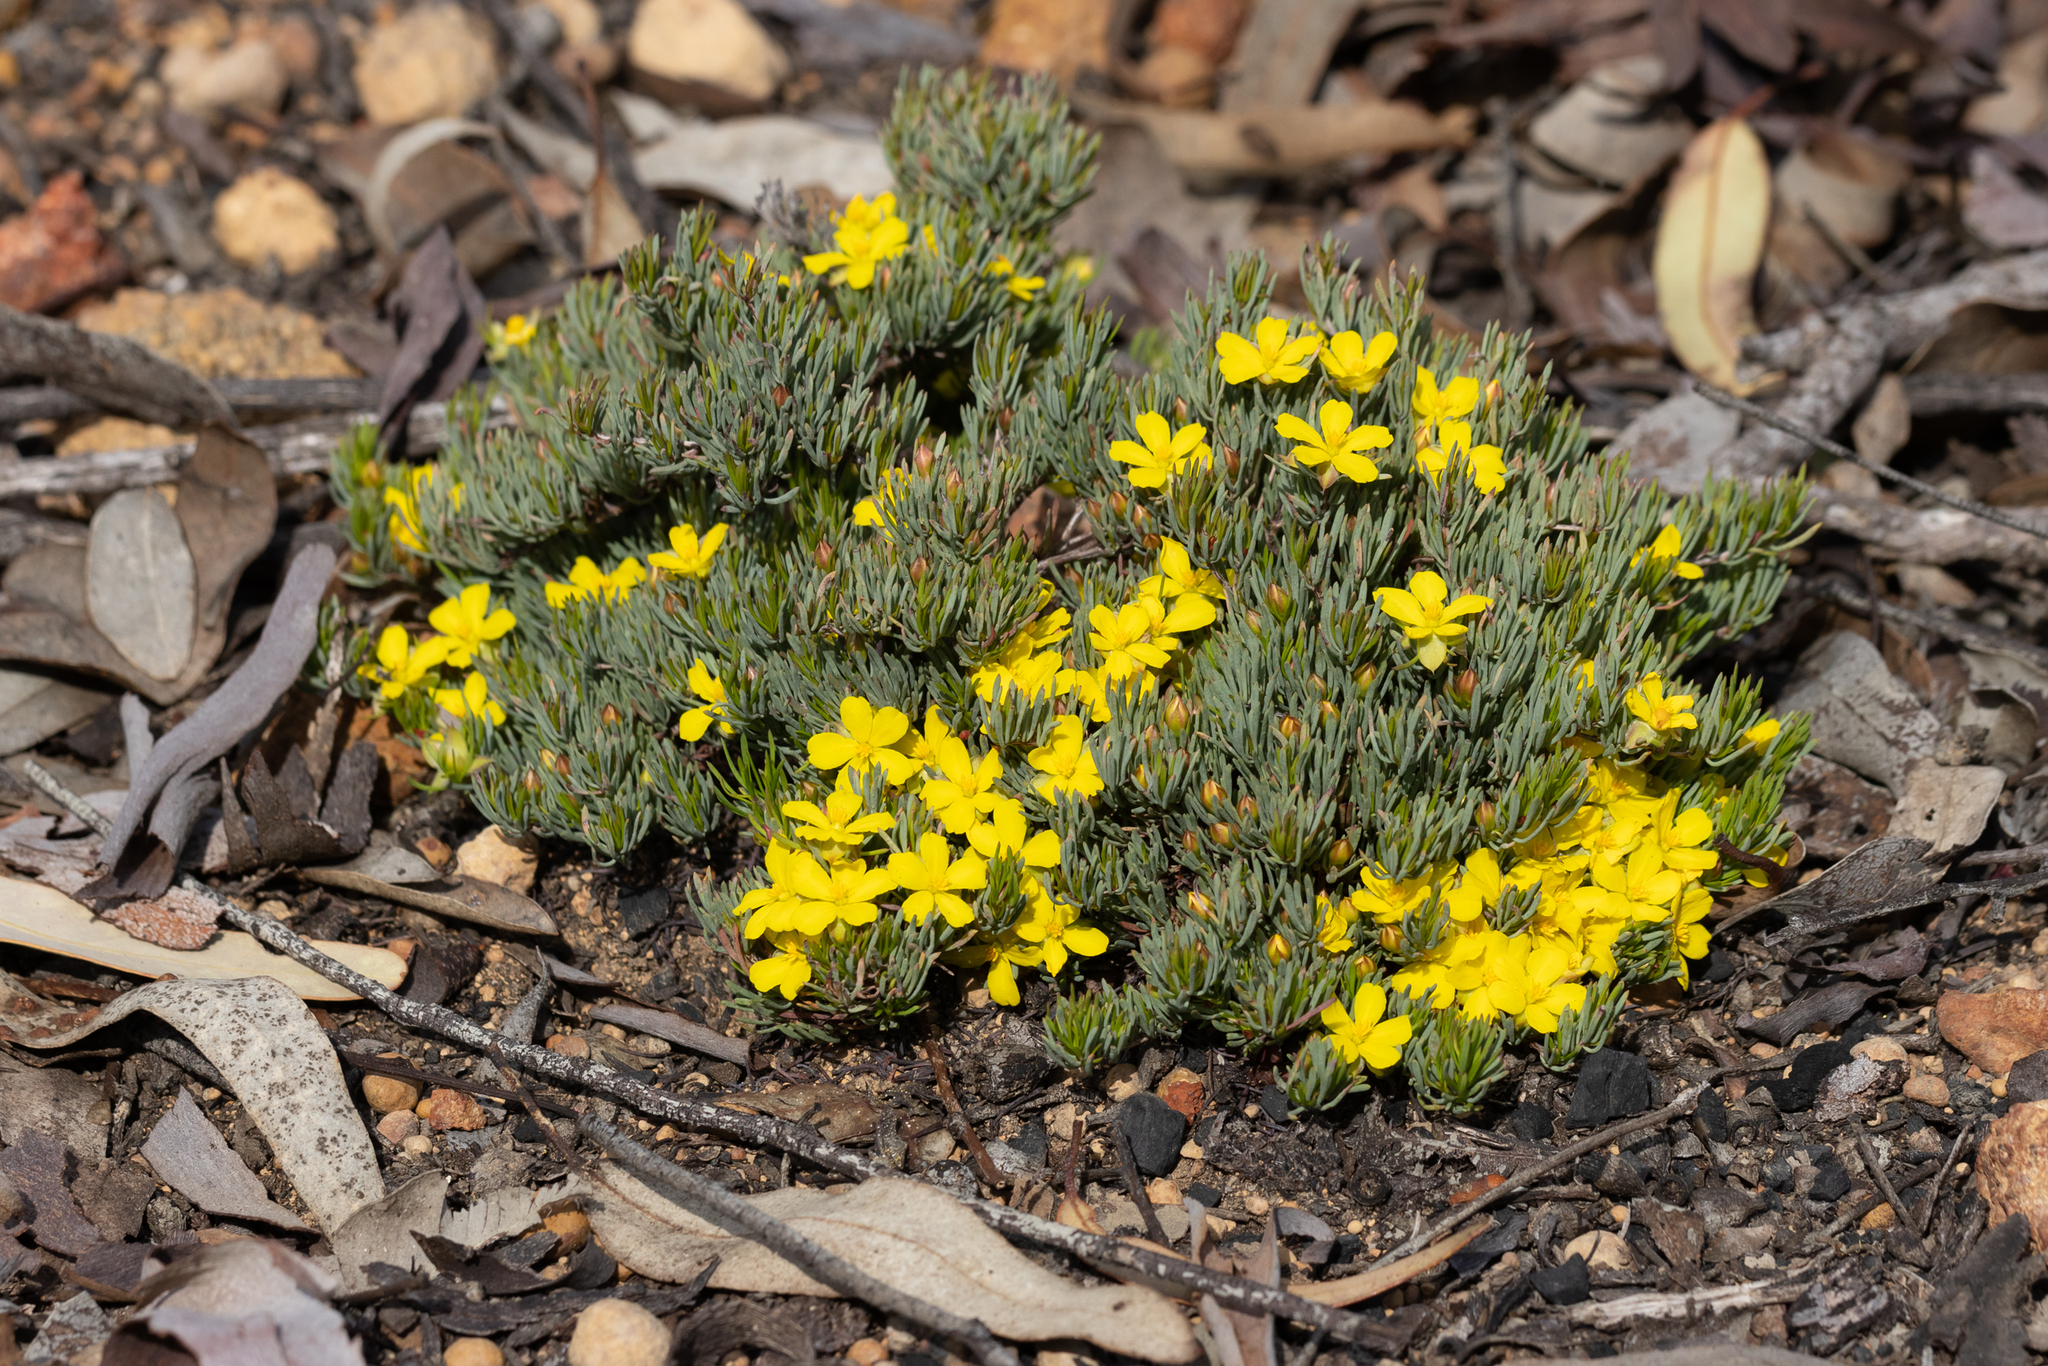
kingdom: Plantae
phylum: Tracheophyta
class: Magnoliopsida
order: Dilleniales
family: Dilleniaceae
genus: Hibbertia
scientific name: Hibbertia hibbertioides
